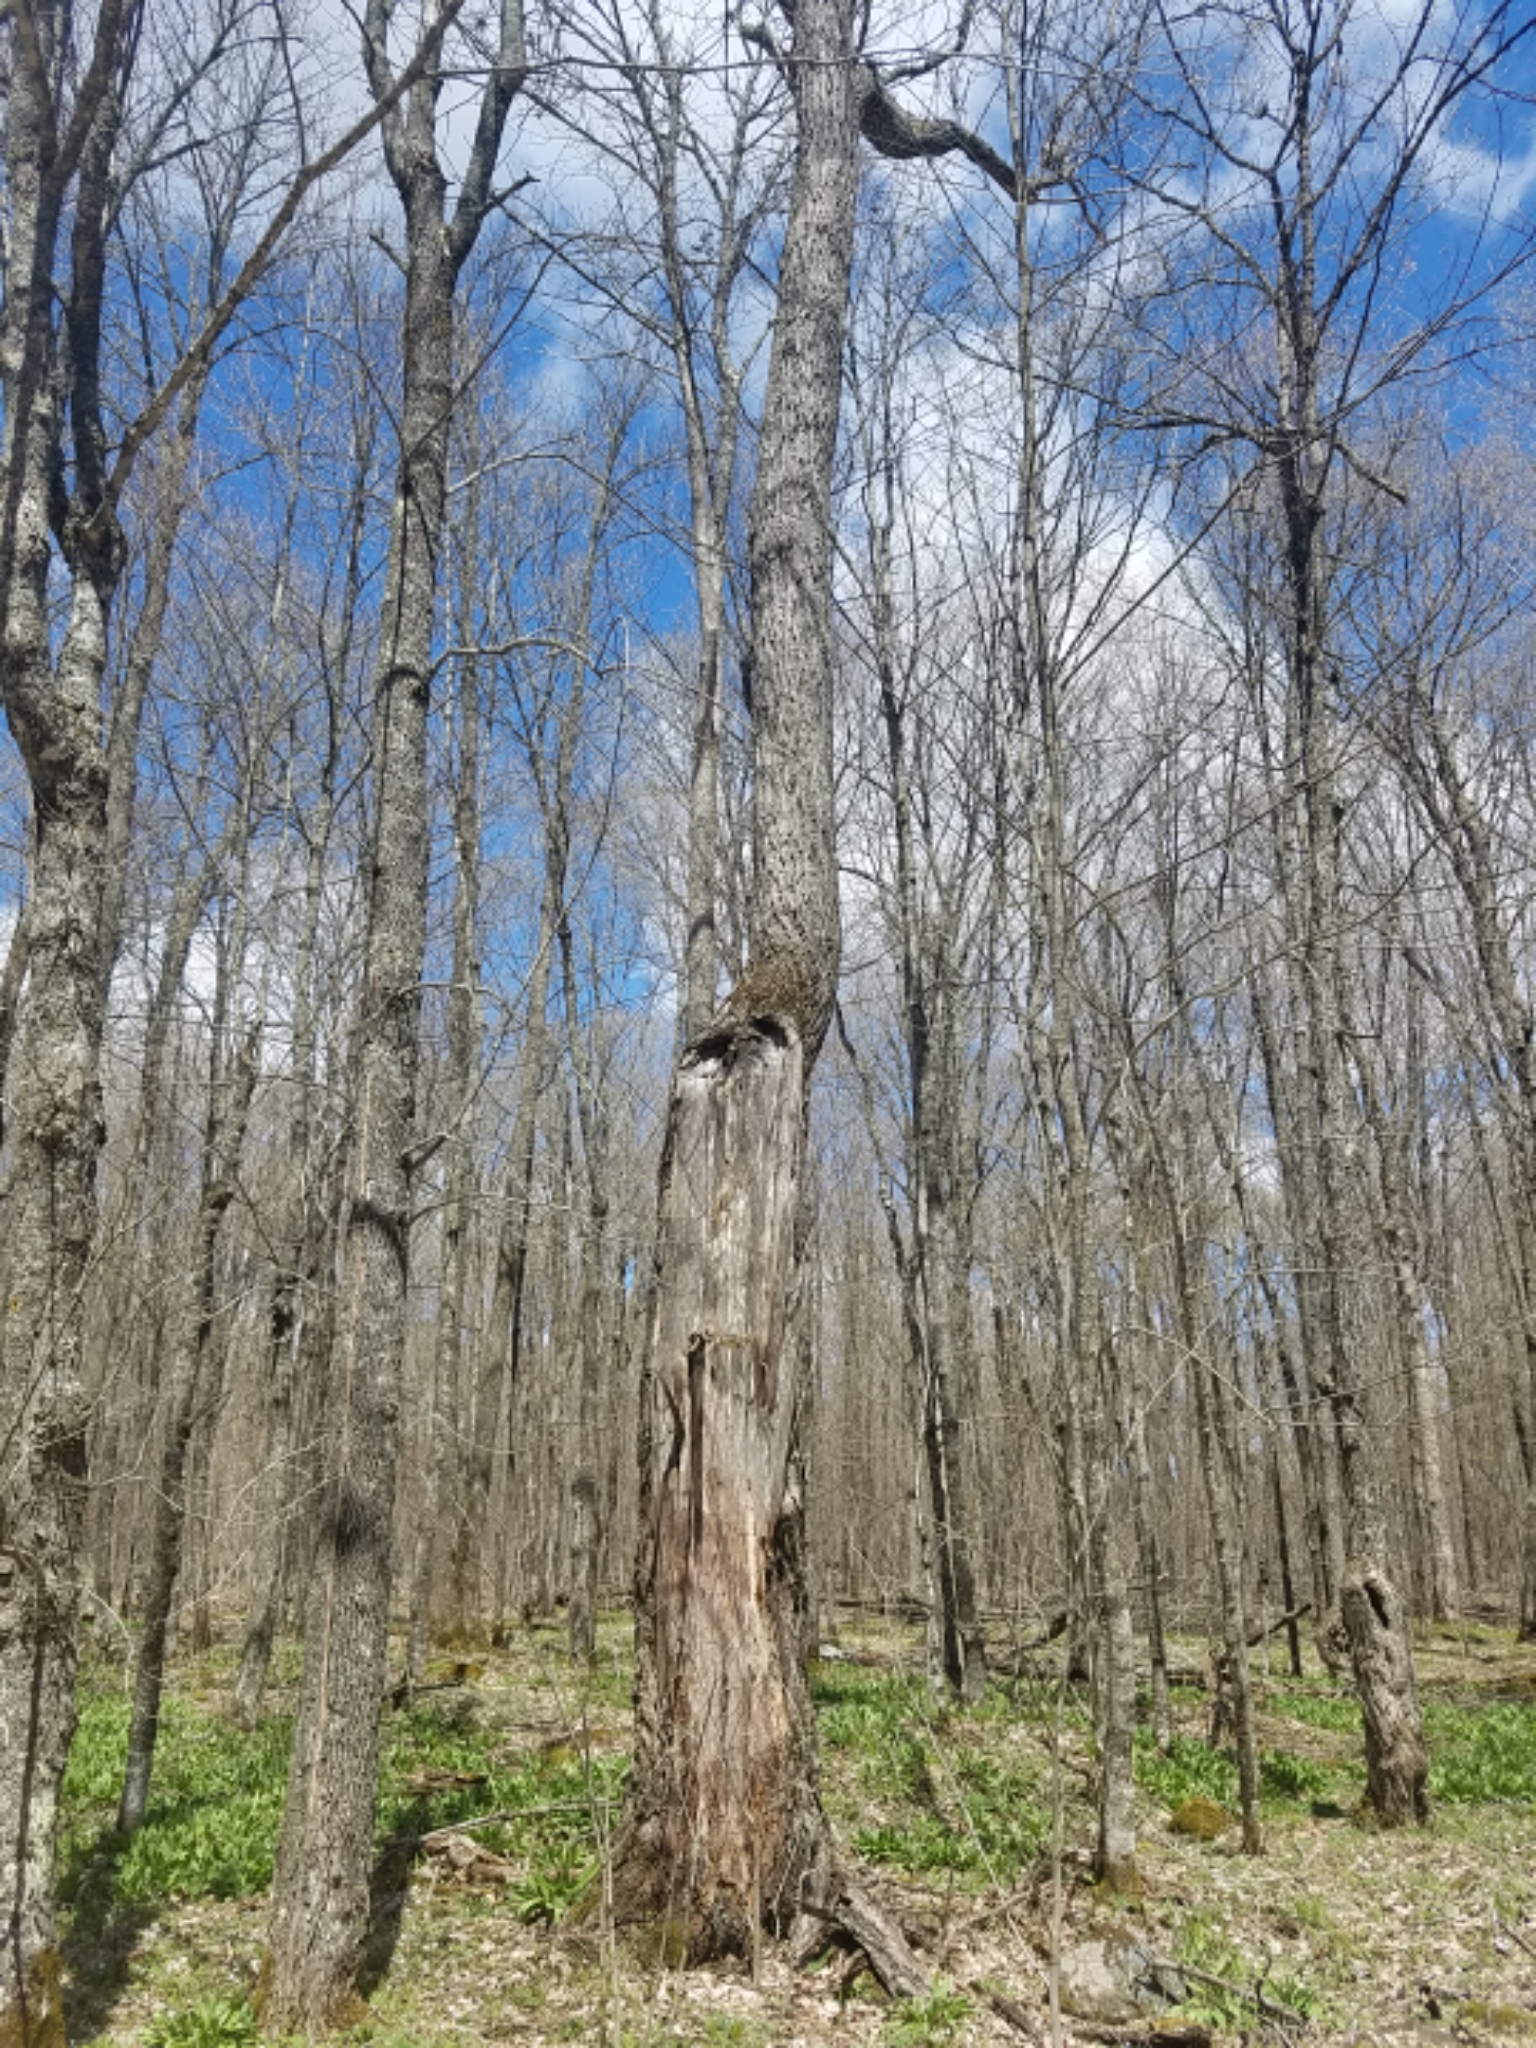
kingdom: Plantae
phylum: Tracheophyta
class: Magnoliopsida
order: Fagales
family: Juglandaceae
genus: Juglans
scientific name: Juglans cinerea
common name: Butternut
